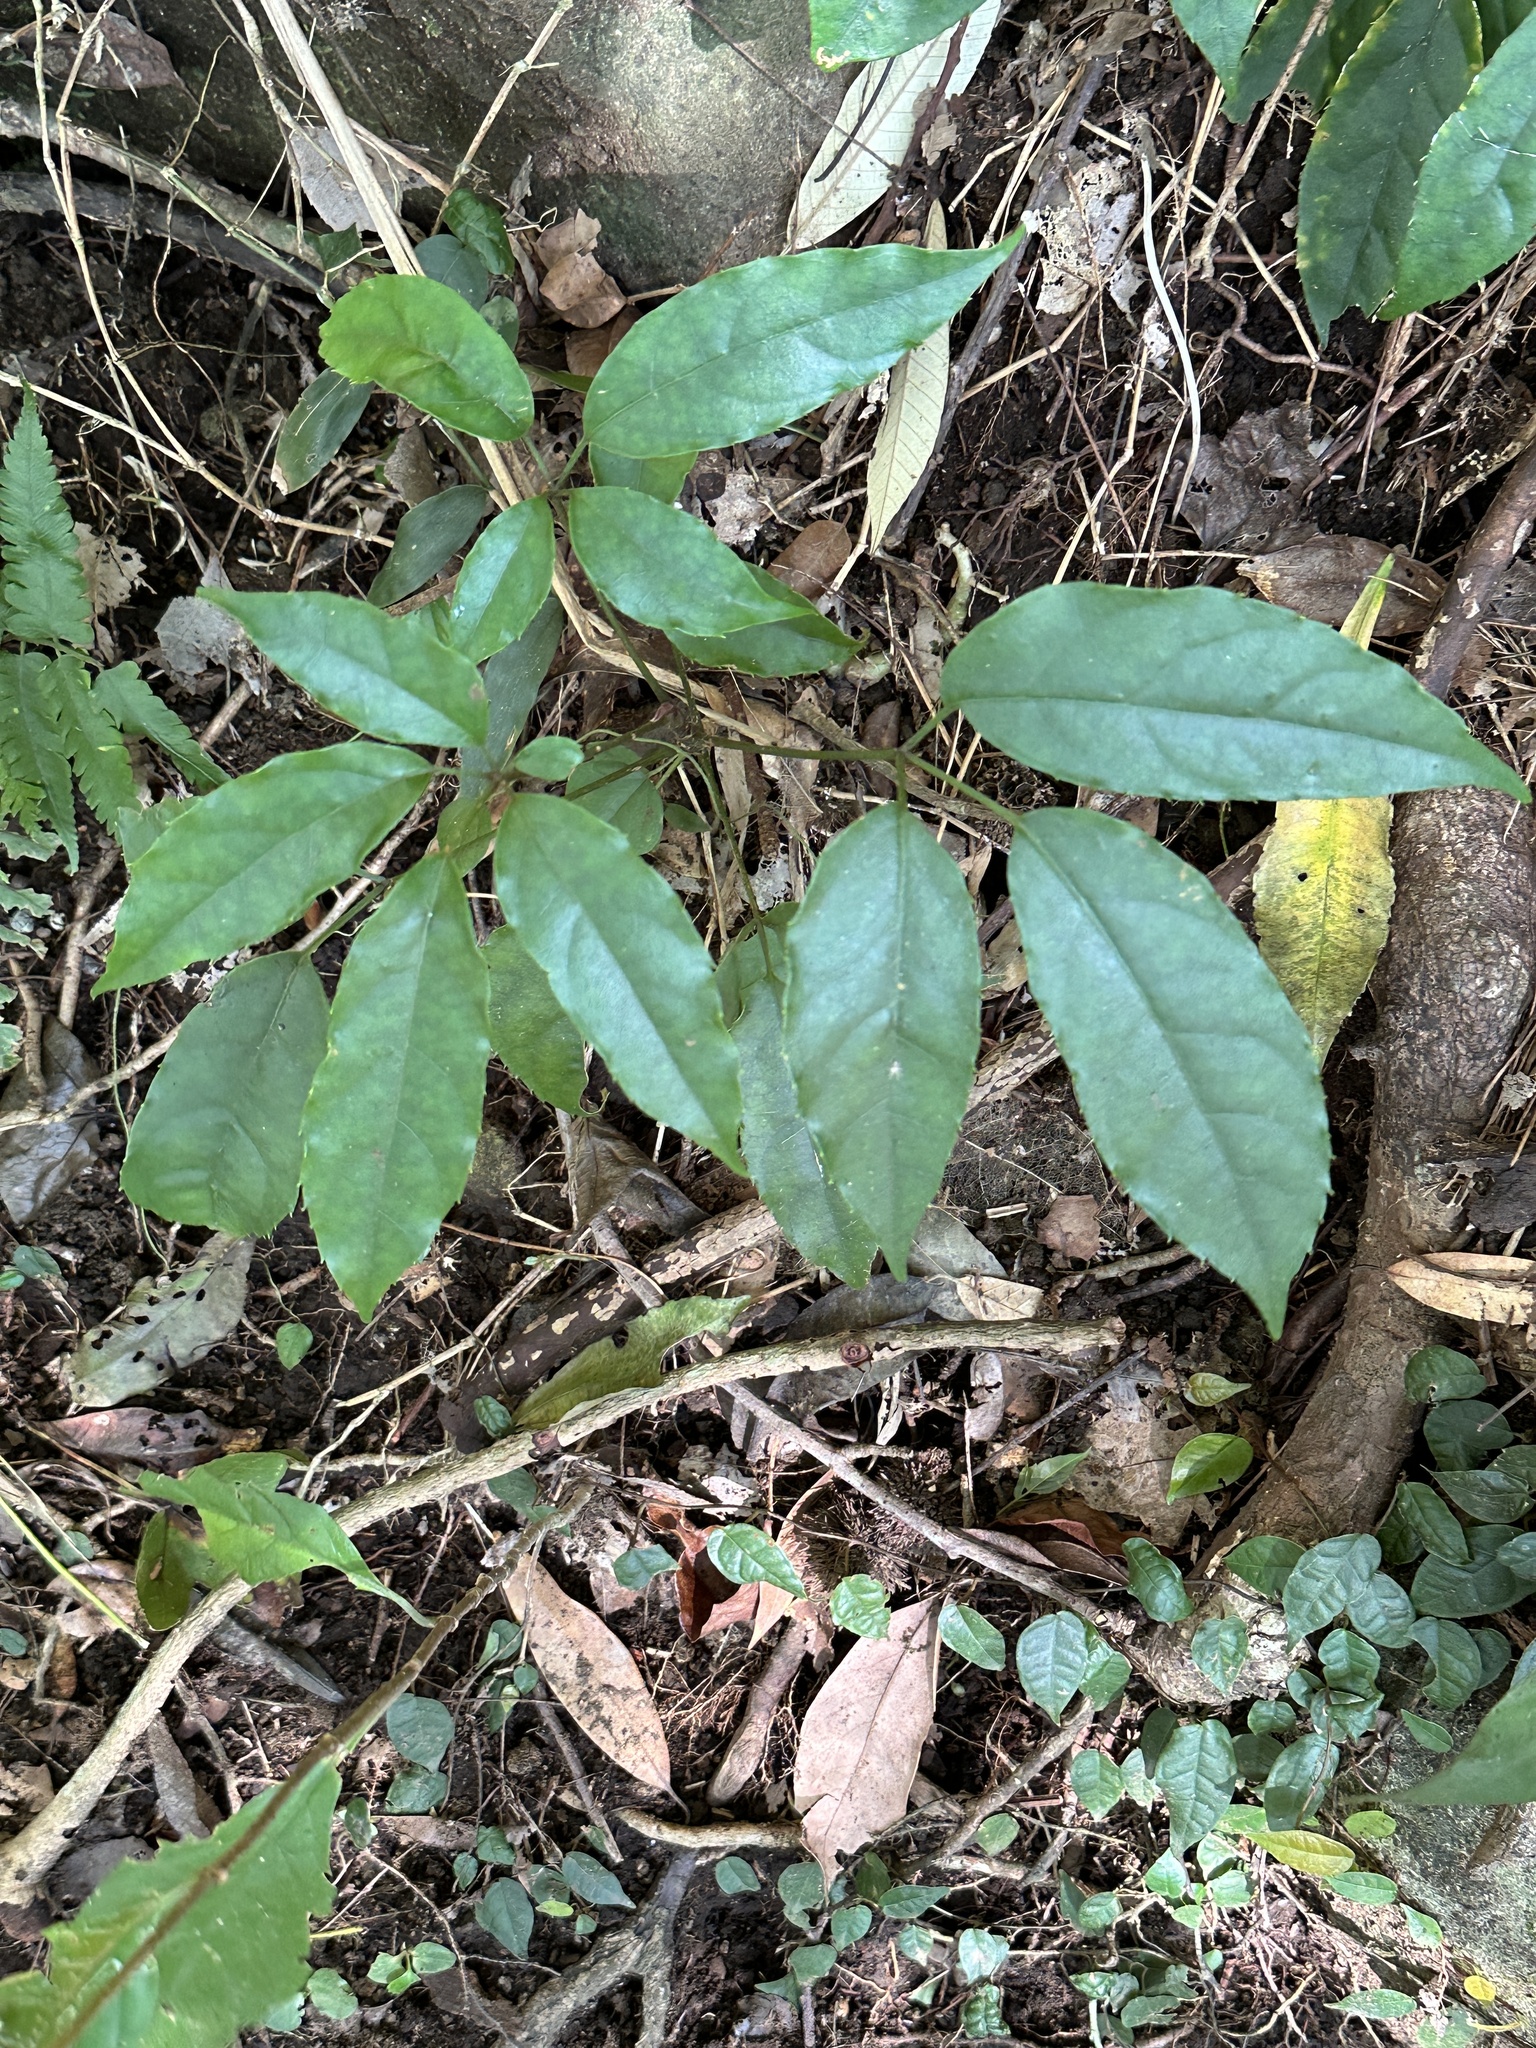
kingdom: Plantae
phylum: Tracheophyta
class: Magnoliopsida
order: Oxalidales
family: Elaeocarpaceae
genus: Elaeocarpus
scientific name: Elaeocarpus japonicus
